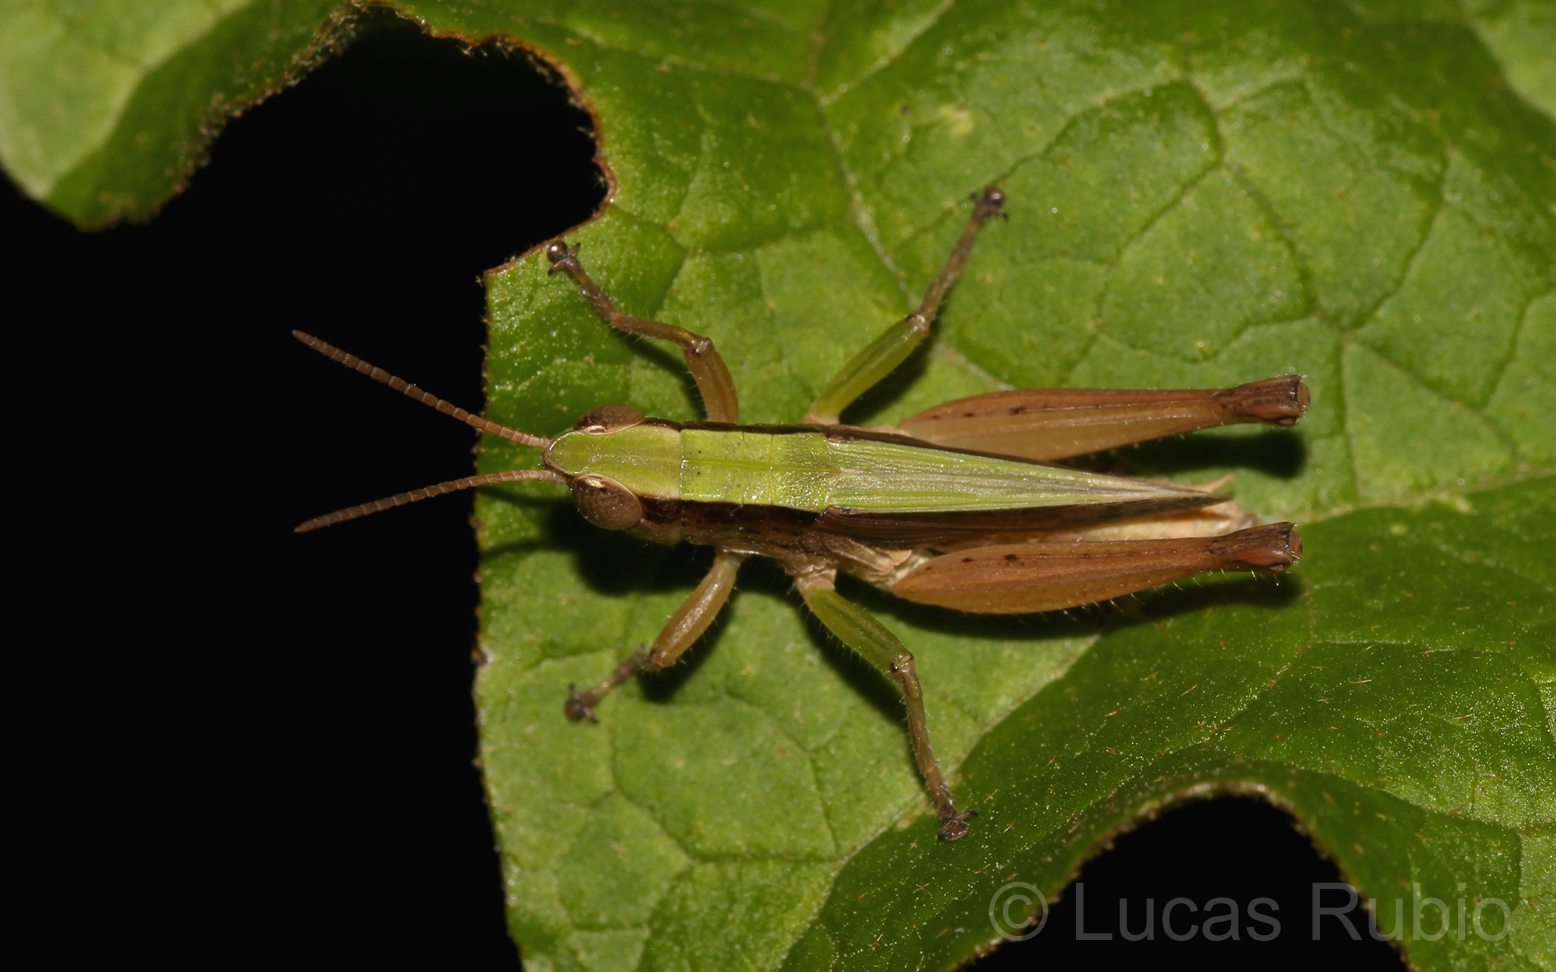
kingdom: Animalia
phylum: Arthropoda
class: Insecta
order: Orthoptera
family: Acrididae
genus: Dichromorpha
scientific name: Dichromorpha australis
